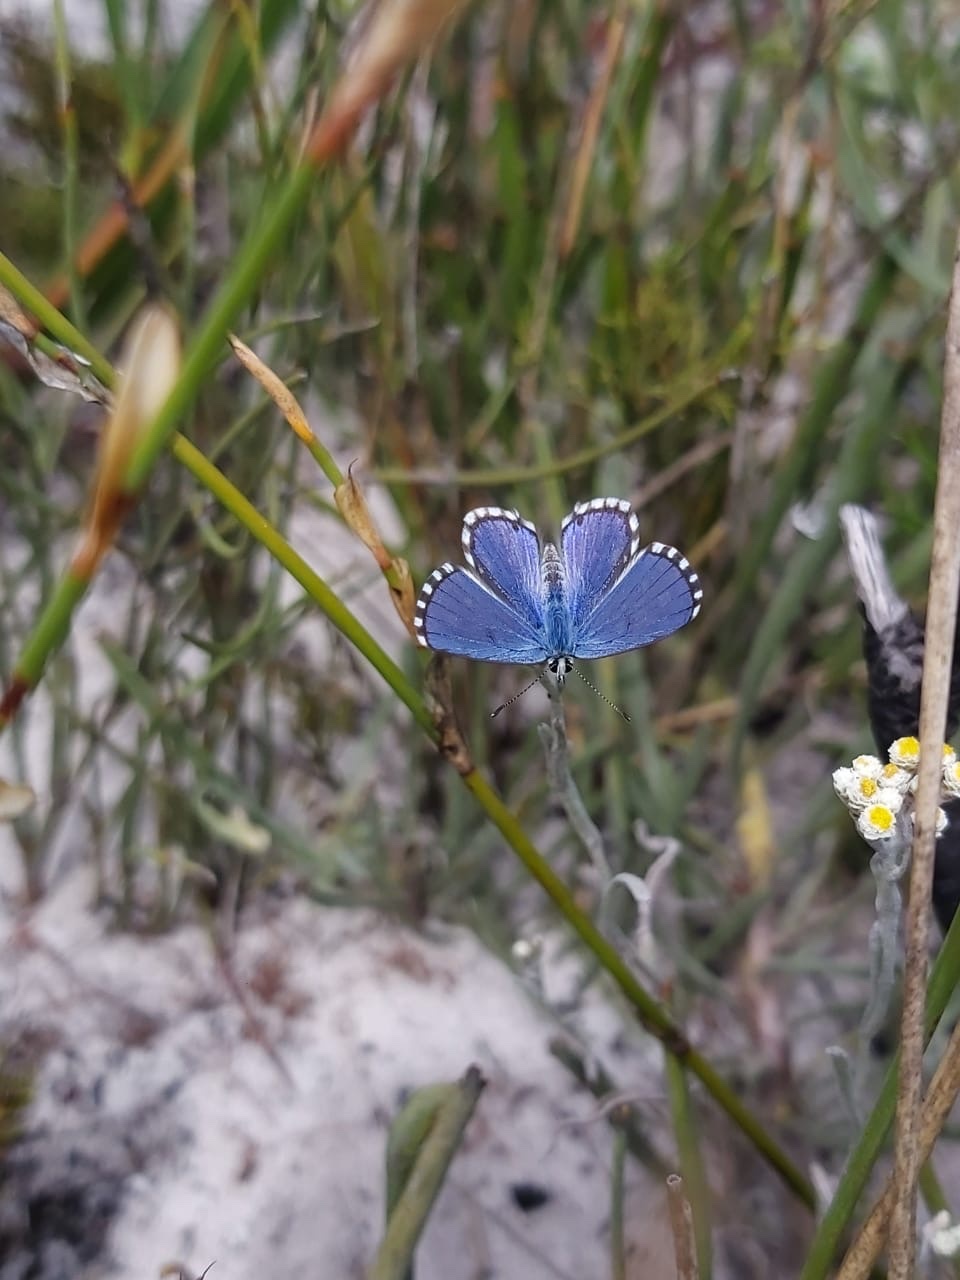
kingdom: Animalia
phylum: Arthropoda
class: Insecta
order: Lepidoptera
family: Lycaenidae
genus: Tarucus
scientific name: Tarucus thespis
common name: Vivid dotted blue
